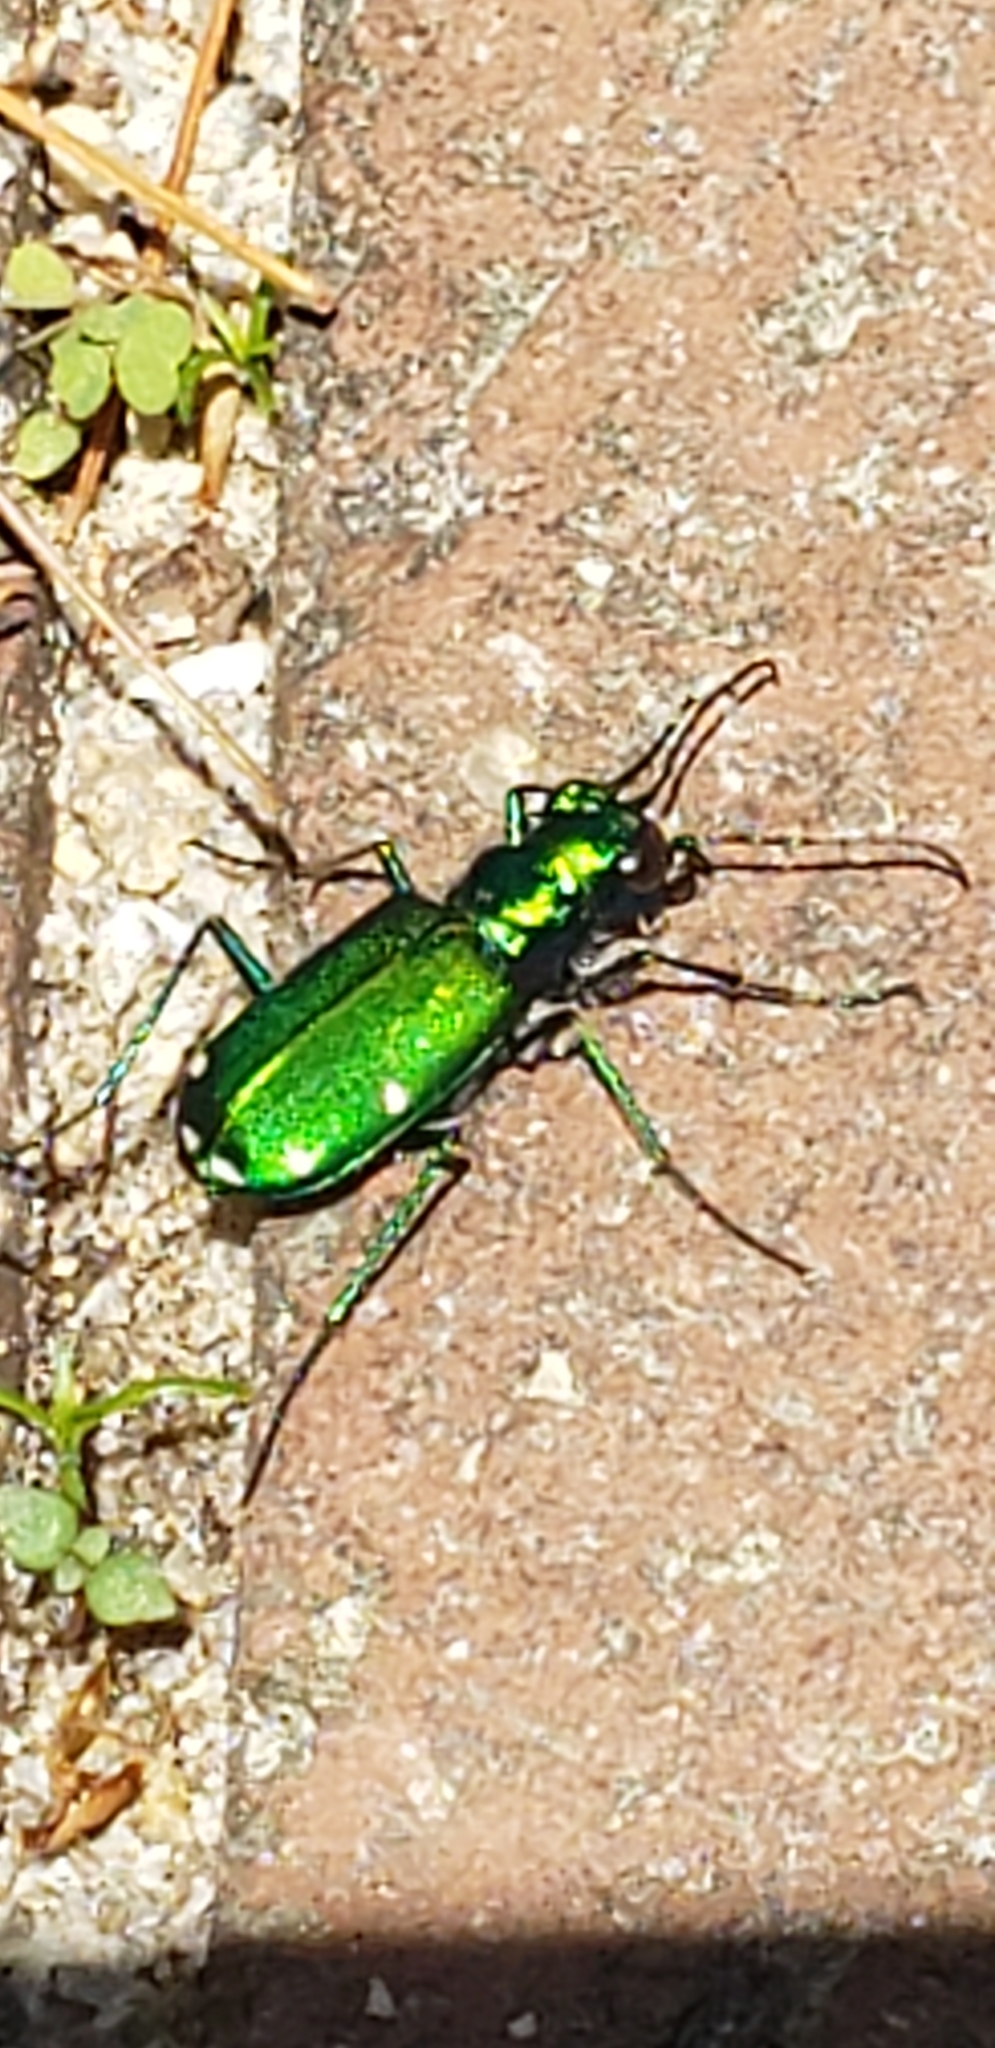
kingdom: Animalia
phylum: Arthropoda
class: Insecta
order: Coleoptera
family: Carabidae
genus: Cicindela
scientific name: Cicindela sexguttata
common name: Six-spotted tiger beetle
